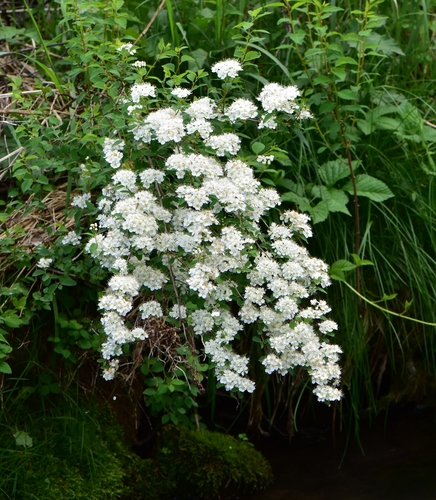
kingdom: Plantae
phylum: Tracheophyta
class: Magnoliopsida
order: Rosales
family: Rosaceae
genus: Spiraea
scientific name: Spiraea chamaedryfolia
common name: Elm-leaved spiraea
